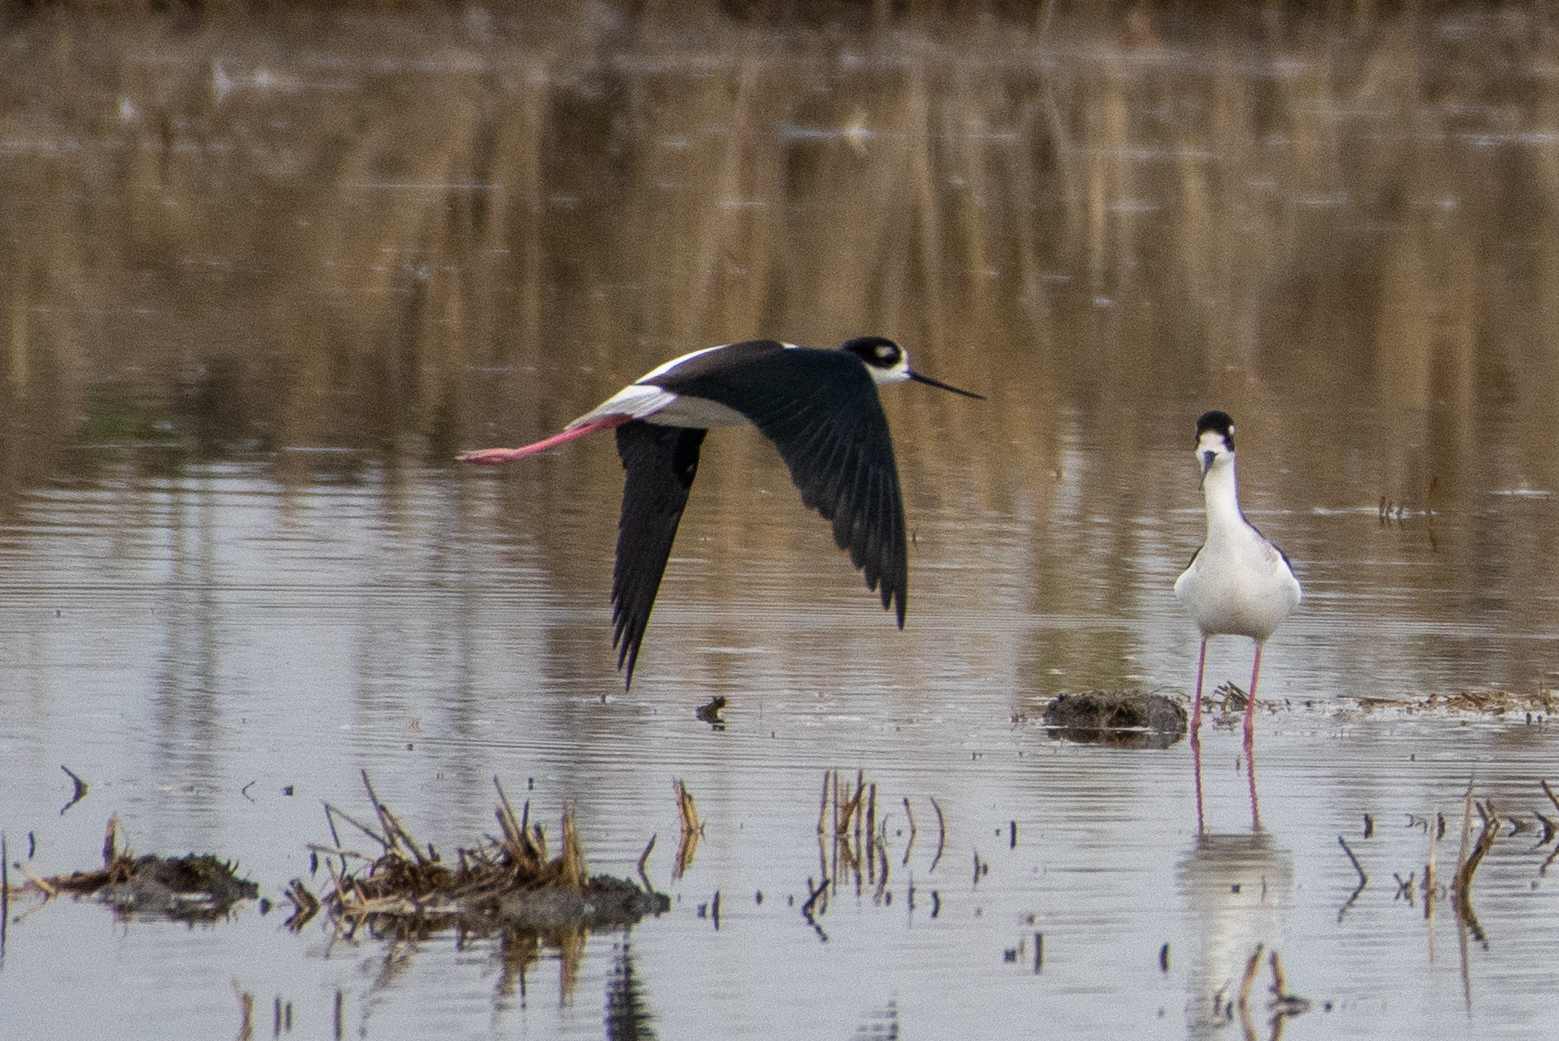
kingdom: Animalia
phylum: Chordata
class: Aves
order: Charadriiformes
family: Recurvirostridae
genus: Himantopus
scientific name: Himantopus mexicanus
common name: Black-necked stilt
